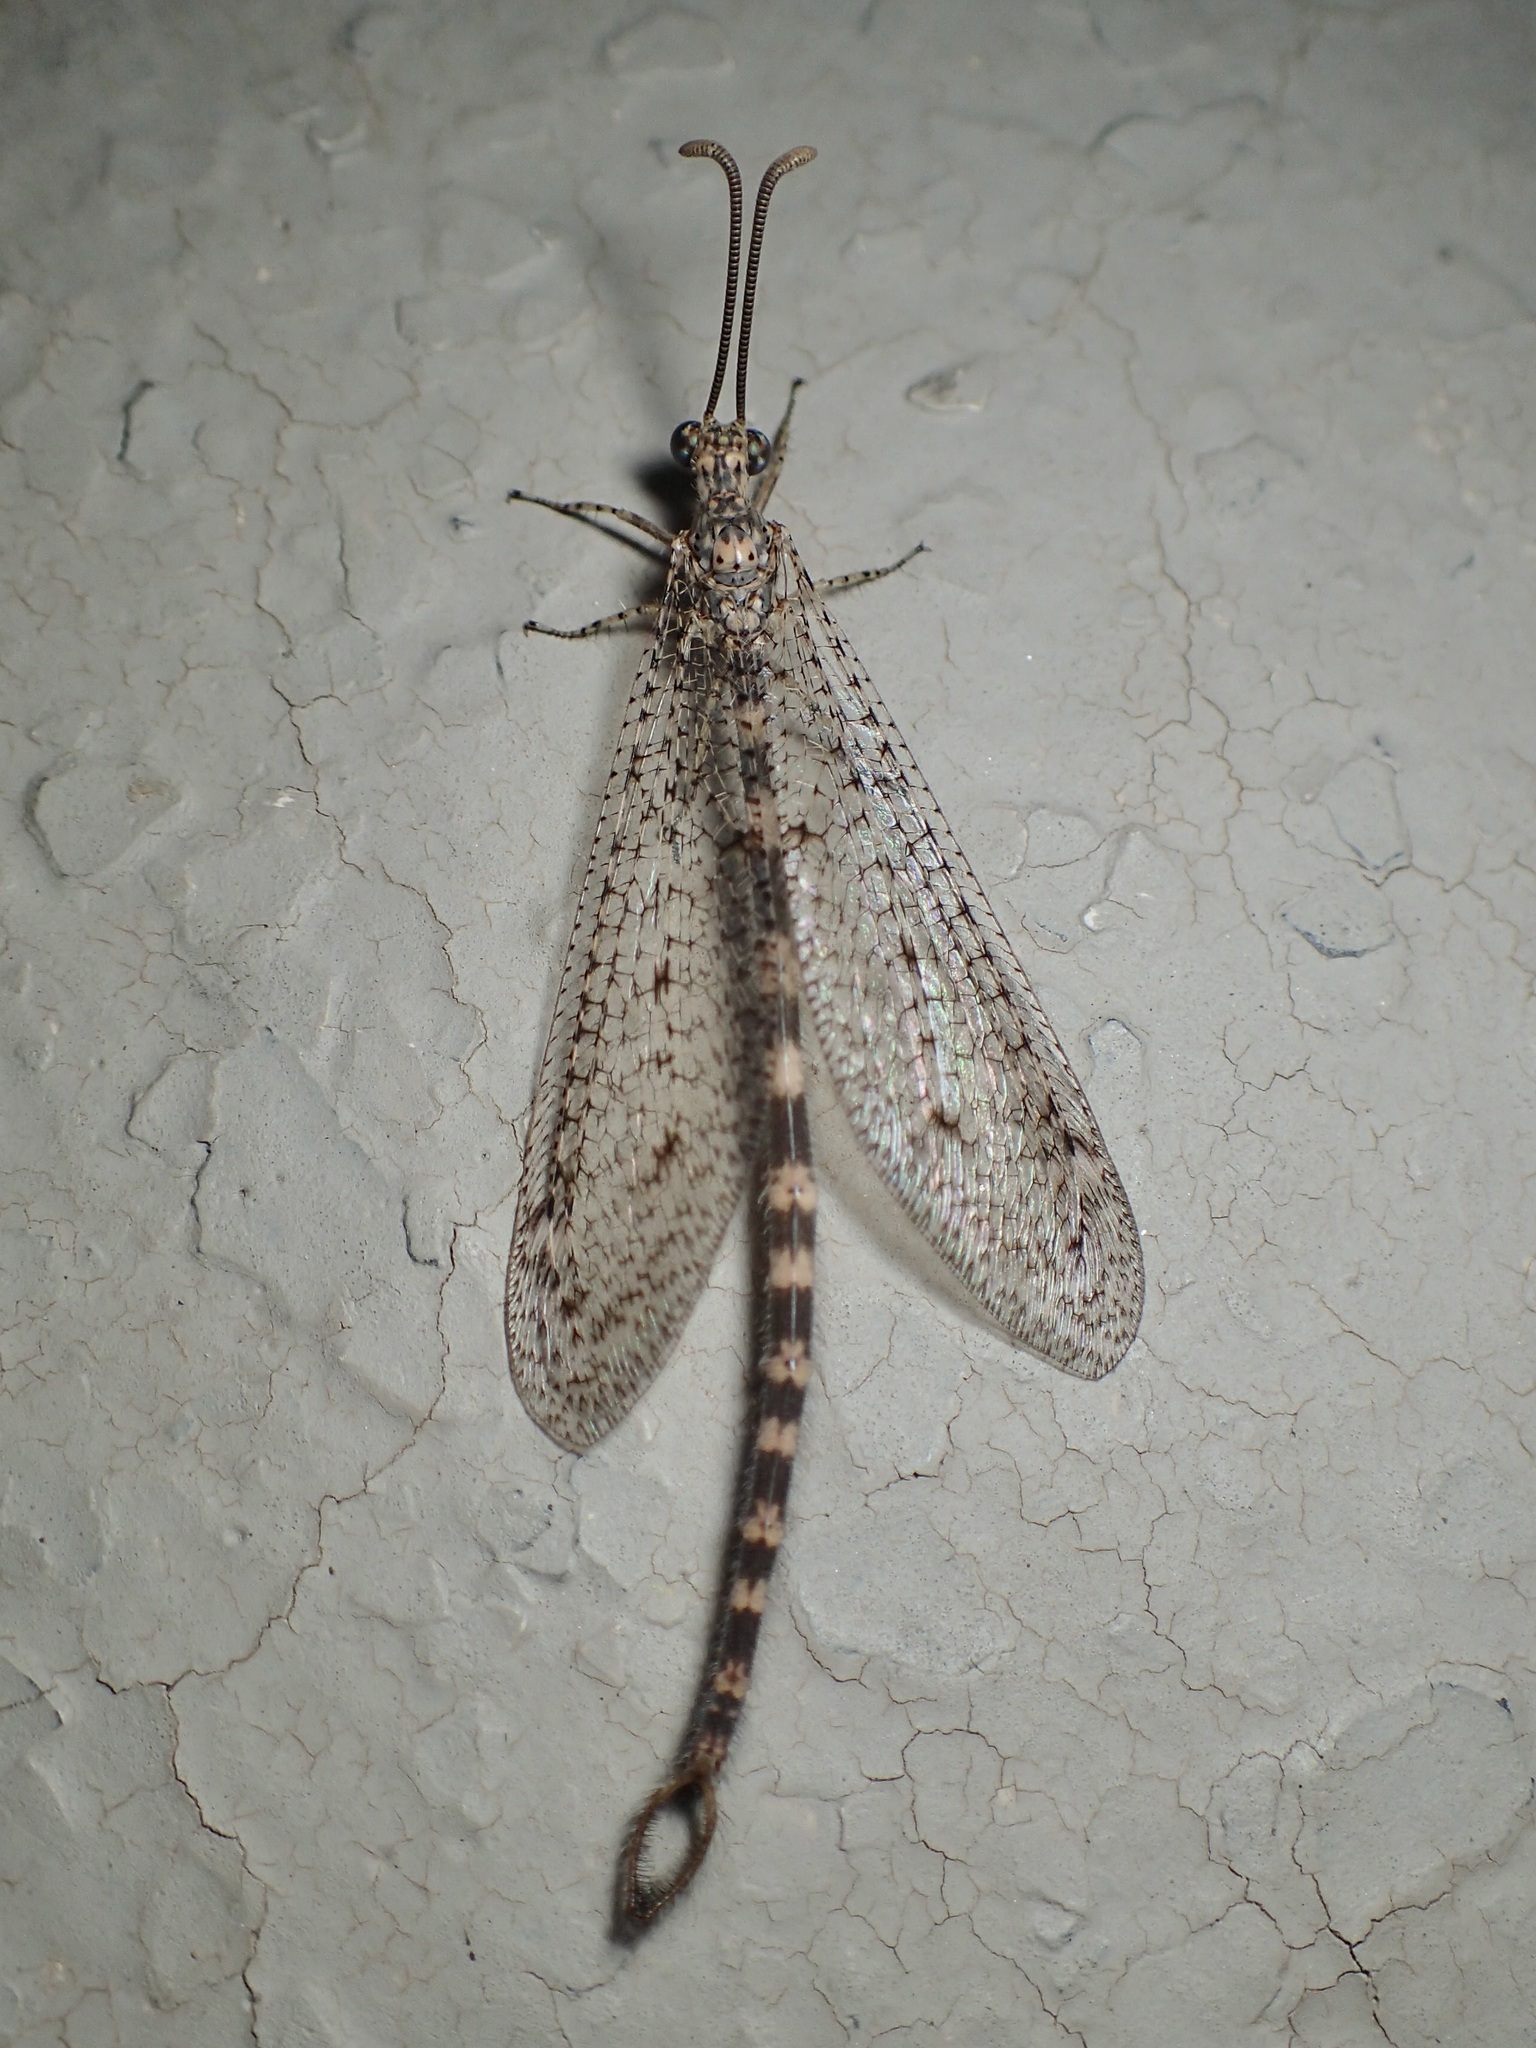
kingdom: Animalia
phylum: Arthropoda
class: Insecta
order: Neuroptera
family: Myrmeleontidae
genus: Brachynemurus
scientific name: Brachynemurus sackeni
